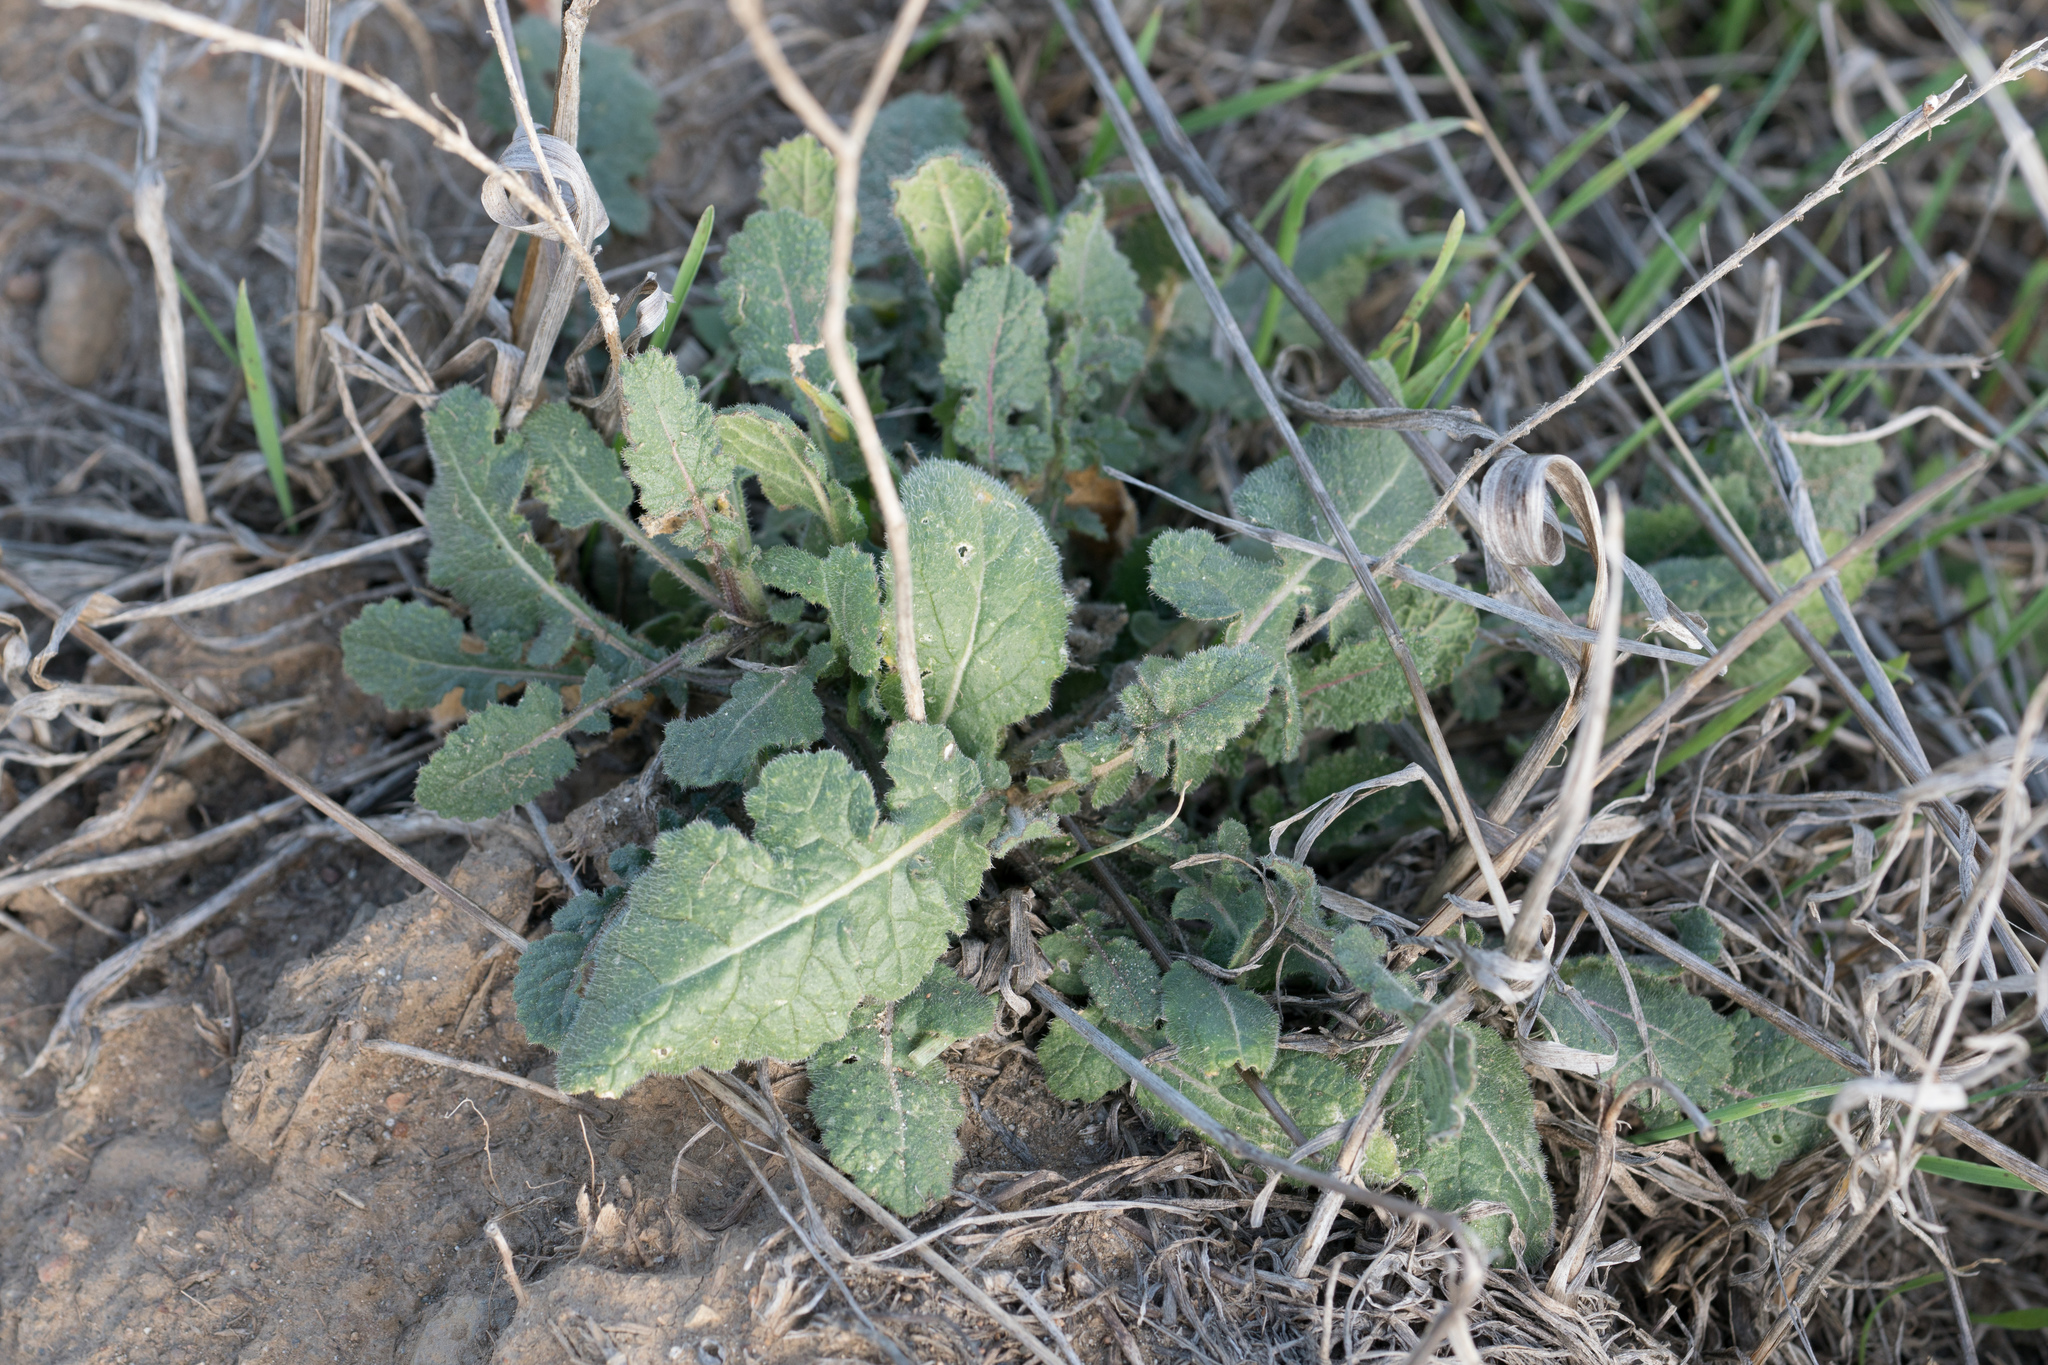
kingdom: Plantae
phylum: Tracheophyta
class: Magnoliopsida
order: Brassicales
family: Brassicaceae
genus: Hirschfeldia
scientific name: Hirschfeldia incana
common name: Hoary mustard
